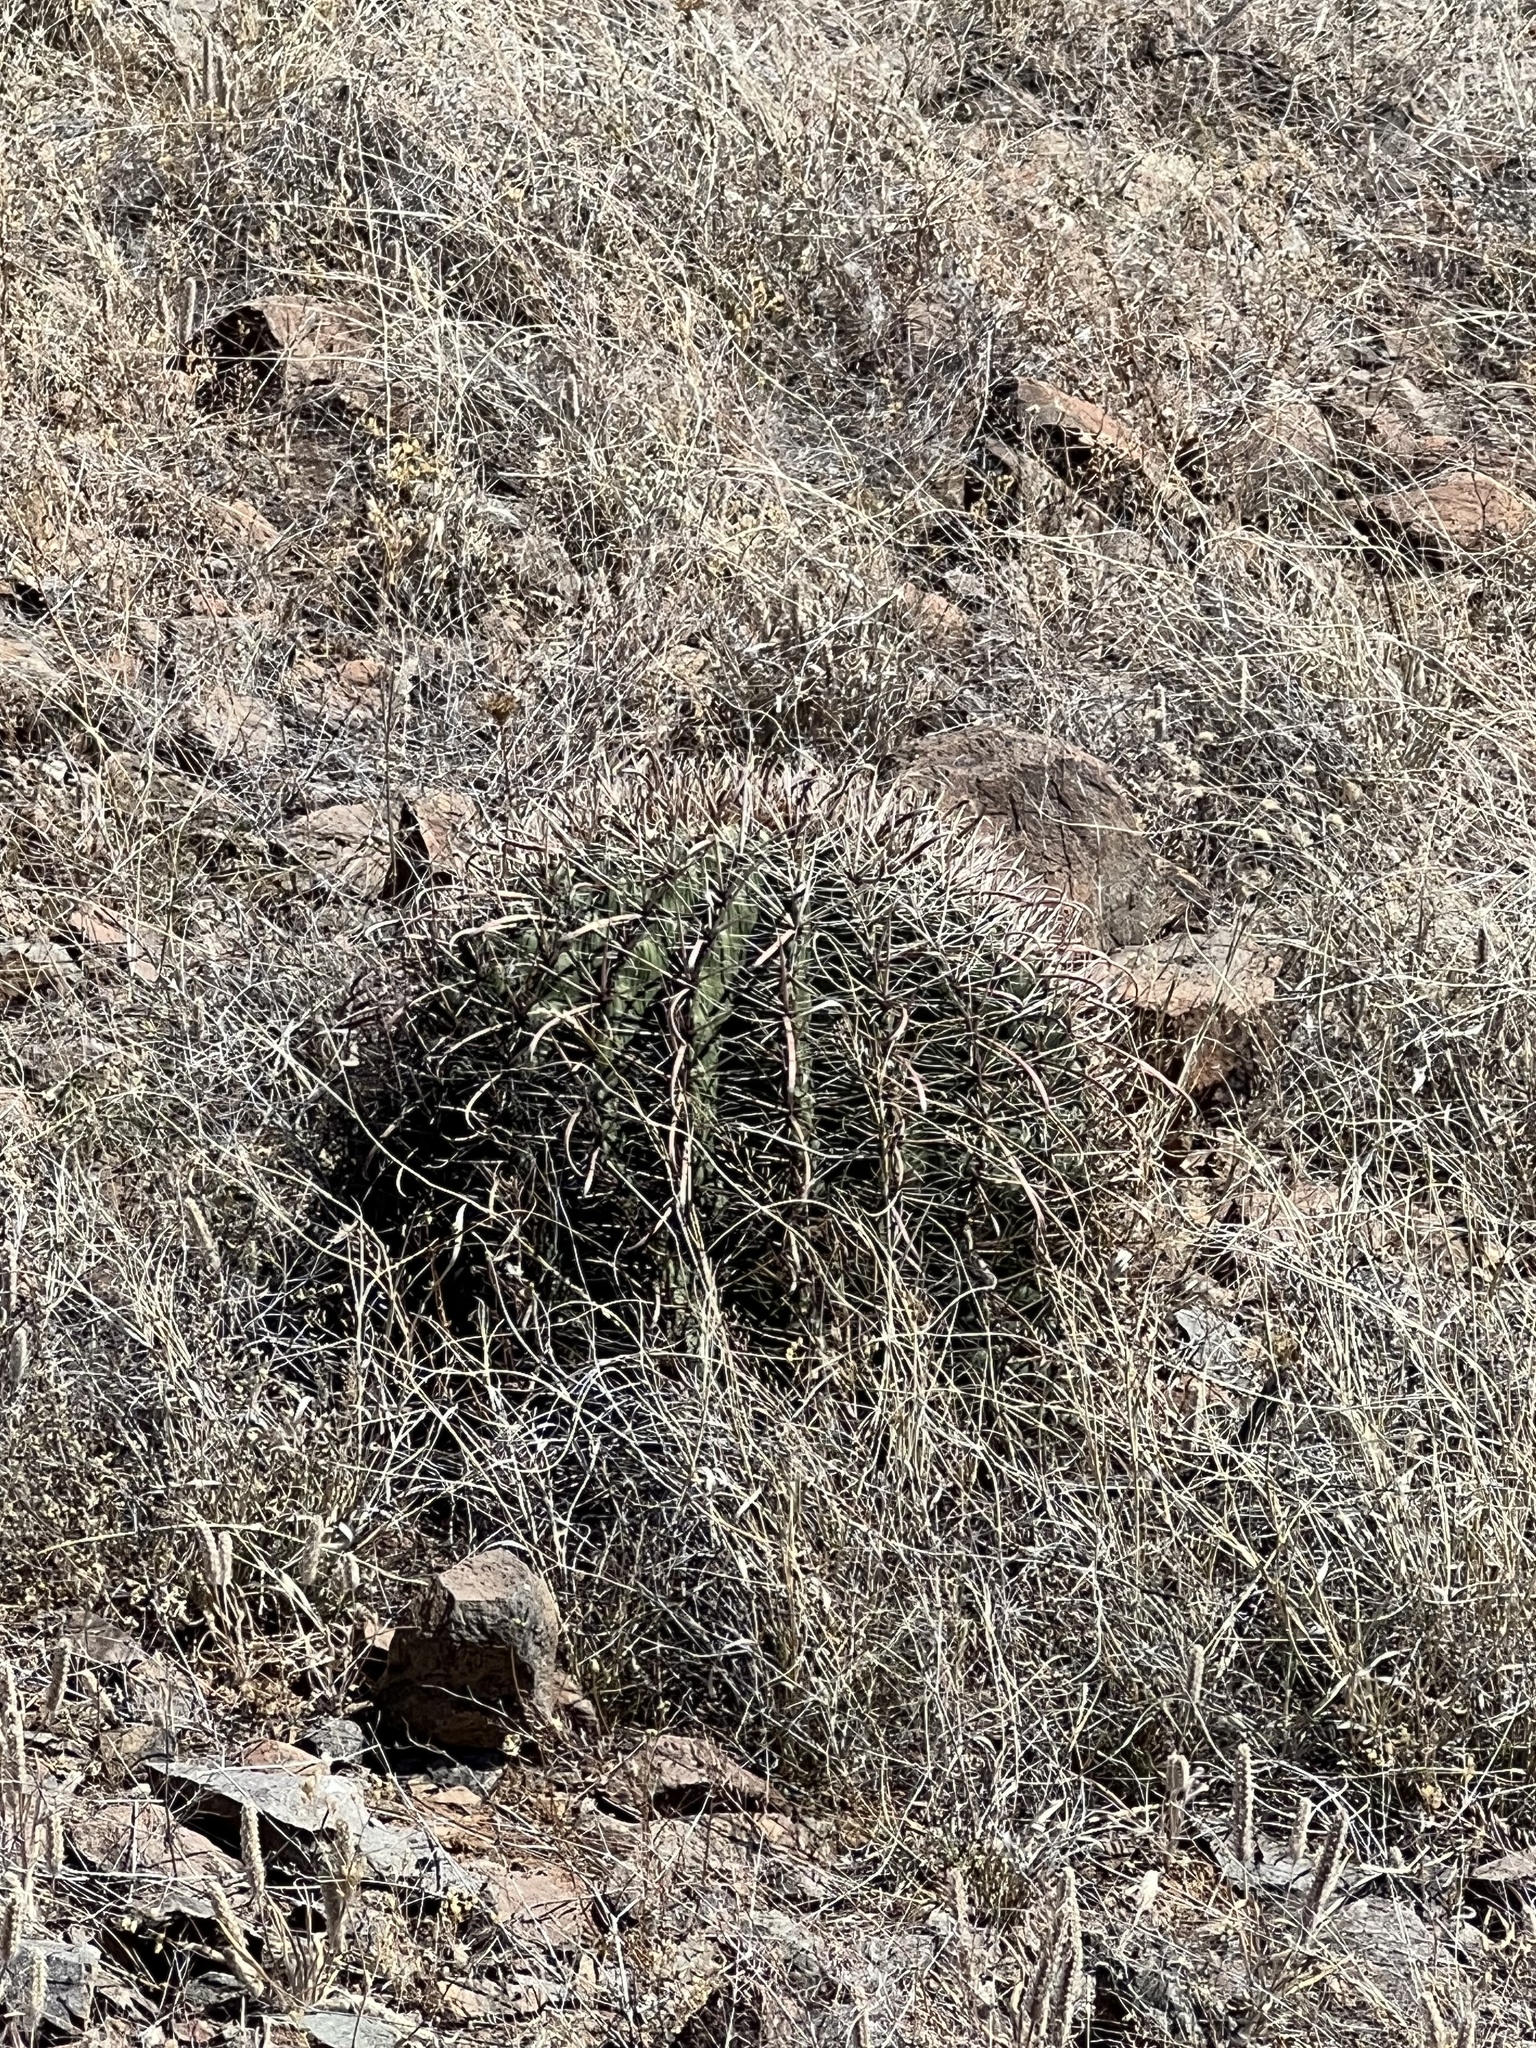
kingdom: Plantae
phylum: Tracheophyta
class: Magnoliopsida
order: Caryophyllales
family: Cactaceae
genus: Ferocactus
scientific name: Ferocactus wislizeni
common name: Candy barrel cactus
